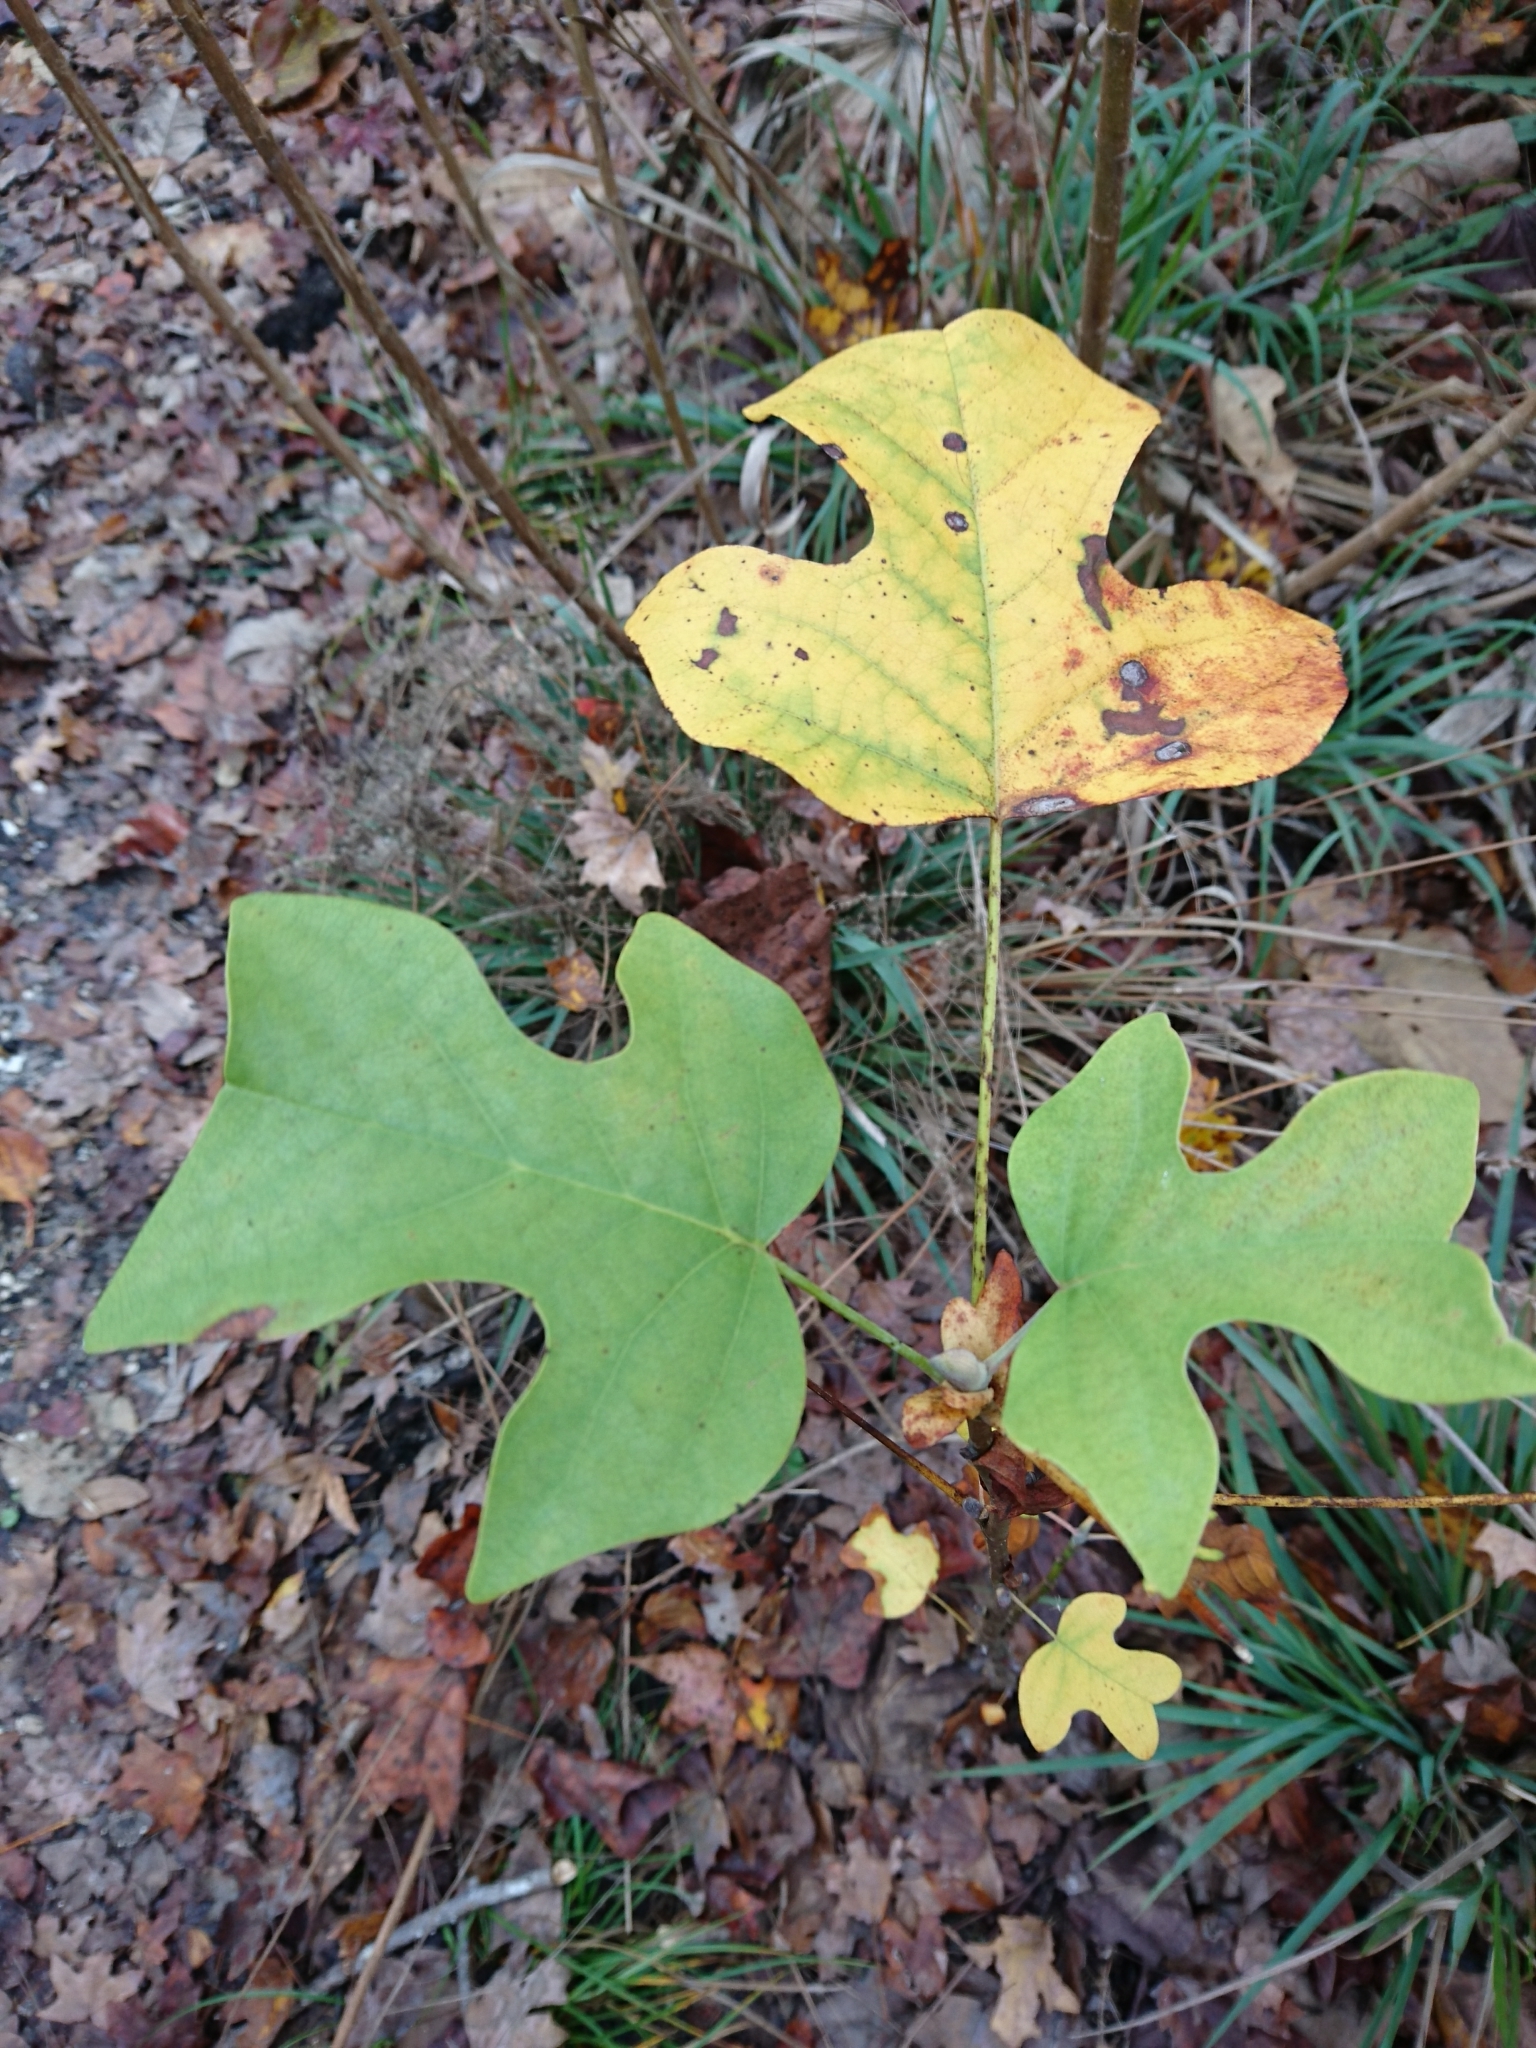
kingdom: Plantae
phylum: Tracheophyta
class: Magnoliopsida
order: Magnoliales
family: Magnoliaceae
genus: Liriodendron
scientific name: Liriodendron tulipifera
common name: Tulip tree
